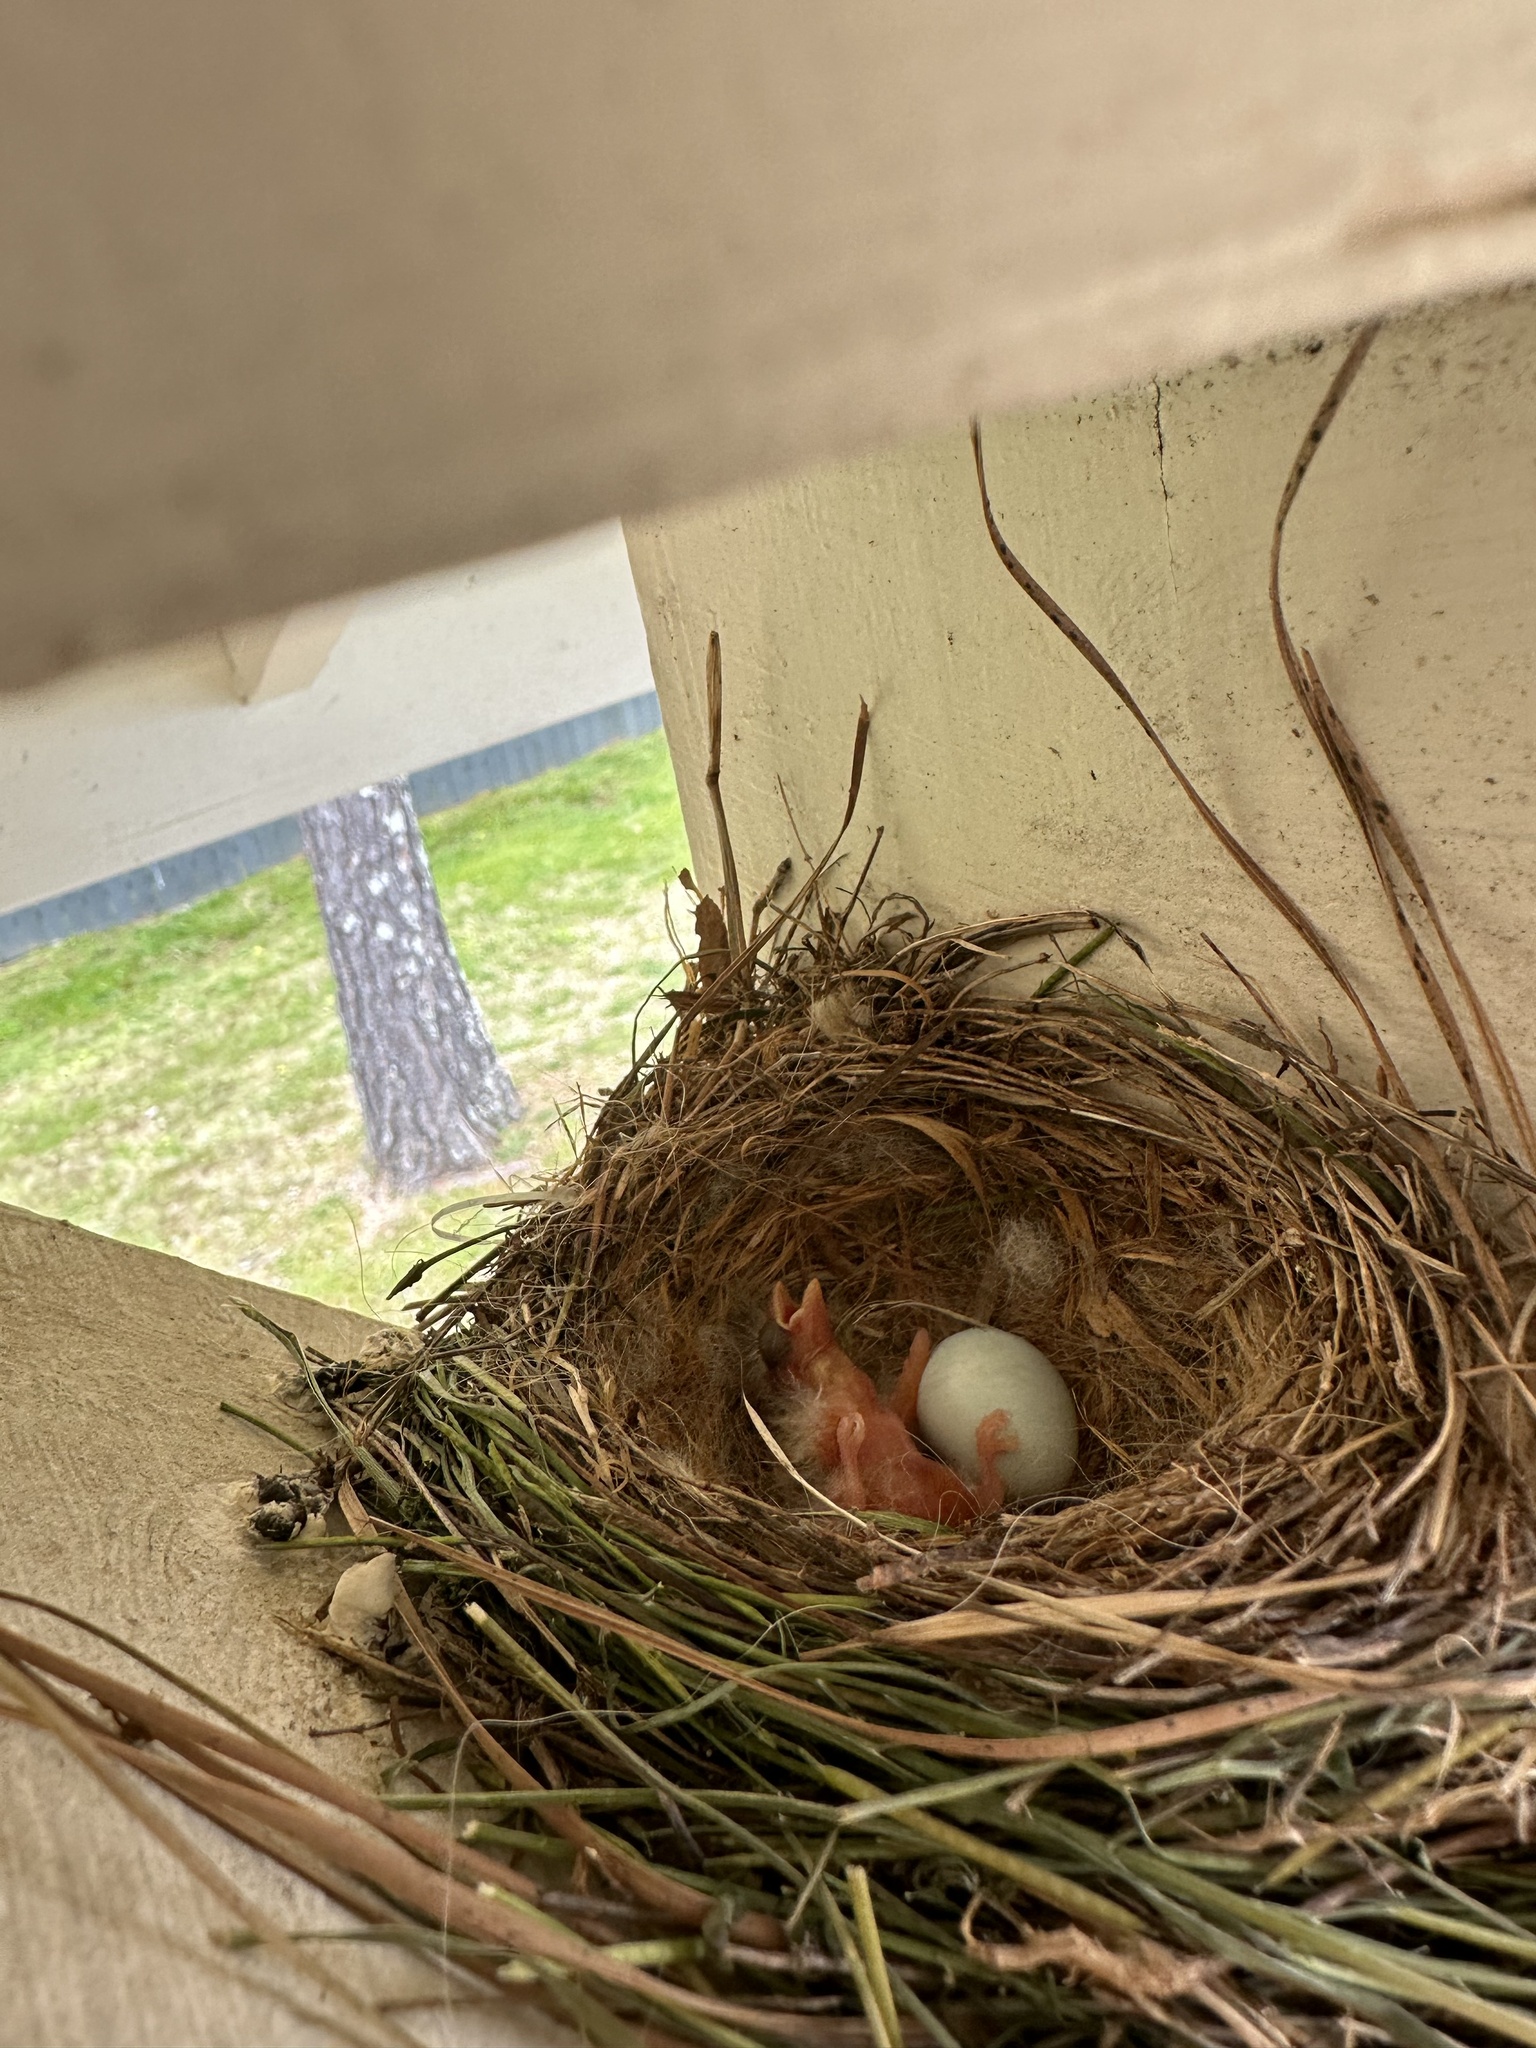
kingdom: Animalia
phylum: Chordata
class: Aves
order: Passeriformes
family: Fringillidae
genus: Haemorhous
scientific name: Haemorhous mexicanus
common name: House finch
